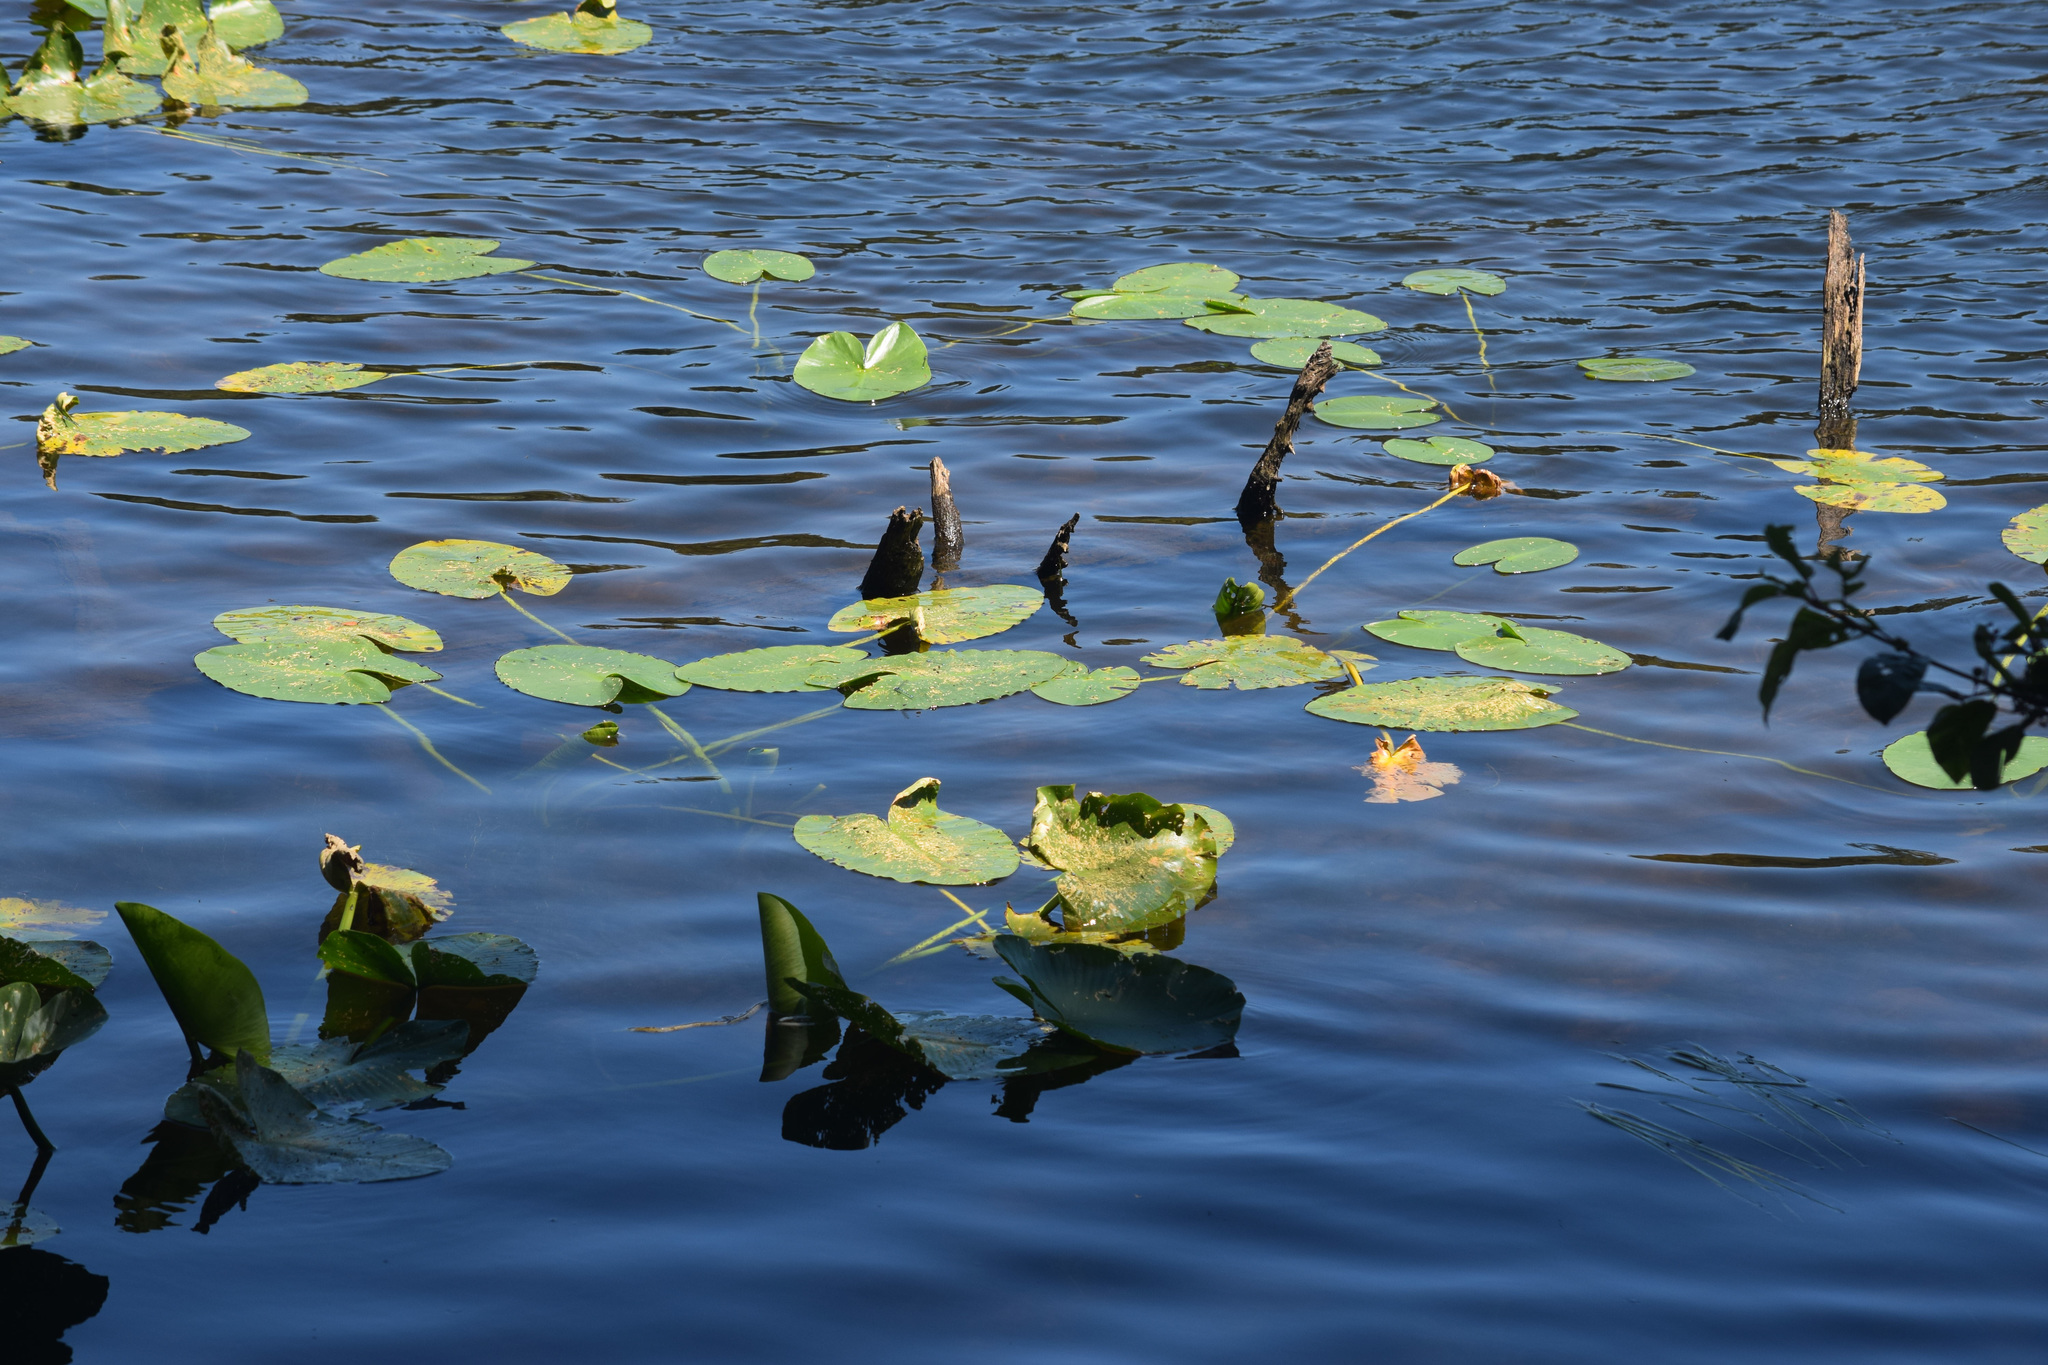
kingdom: Plantae
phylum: Tracheophyta
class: Magnoliopsida
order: Nymphaeales
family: Nymphaeaceae
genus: Nuphar
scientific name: Nuphar polysepala
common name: Rocky mountain cow-lily
